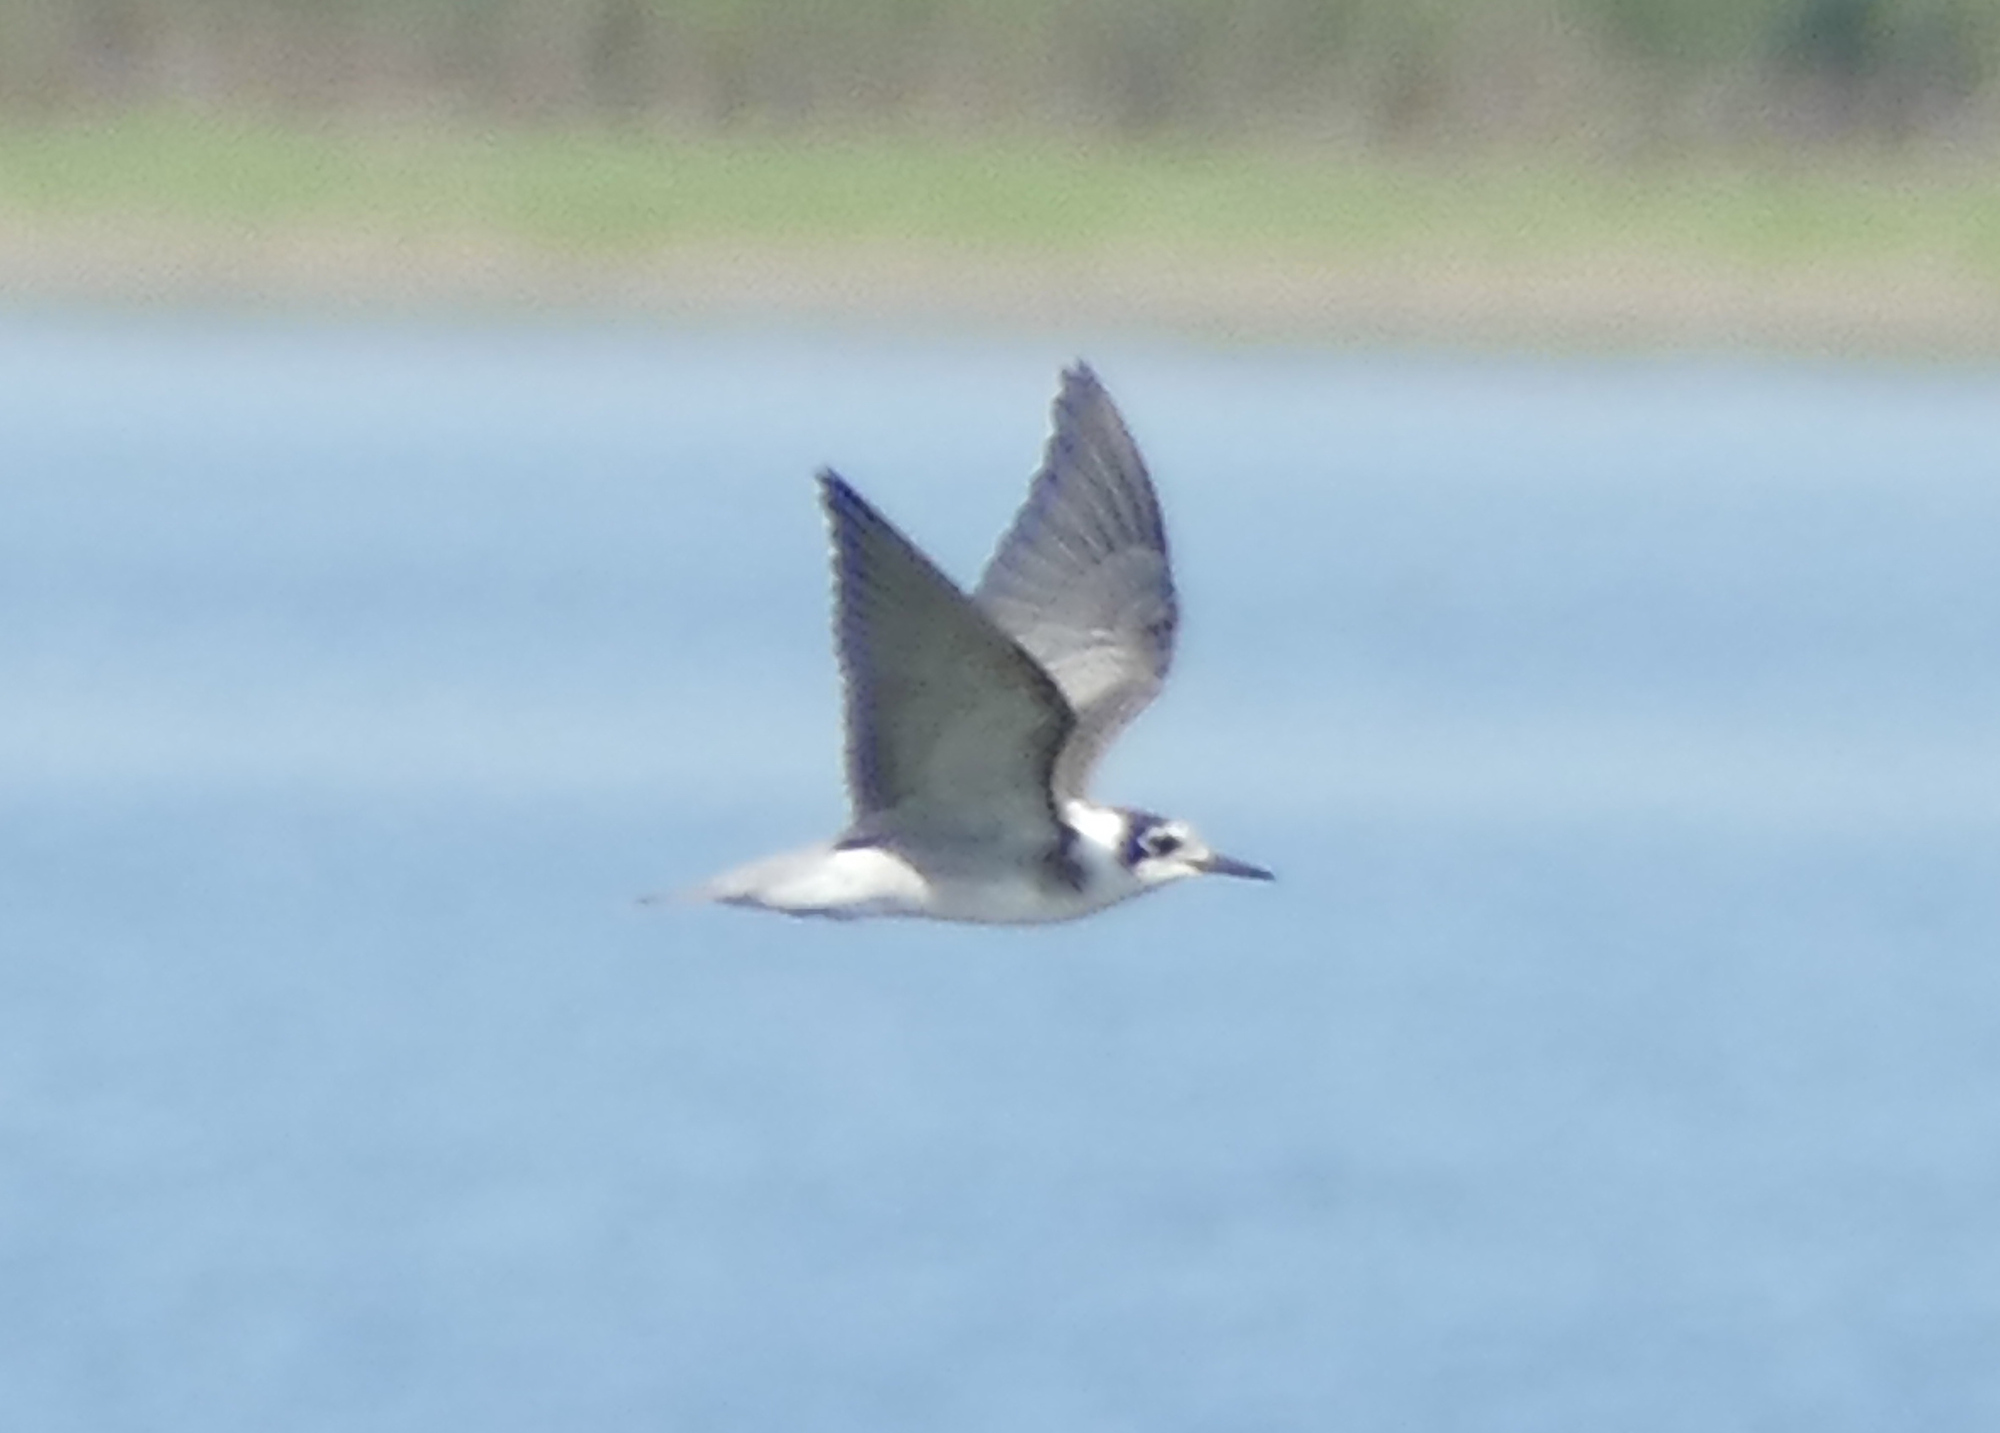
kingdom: Animalia
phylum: Chordata
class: Aves
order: Charadriiformes
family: Laridae
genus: Chlidonias
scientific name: Chlidonias niger
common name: Black tern
